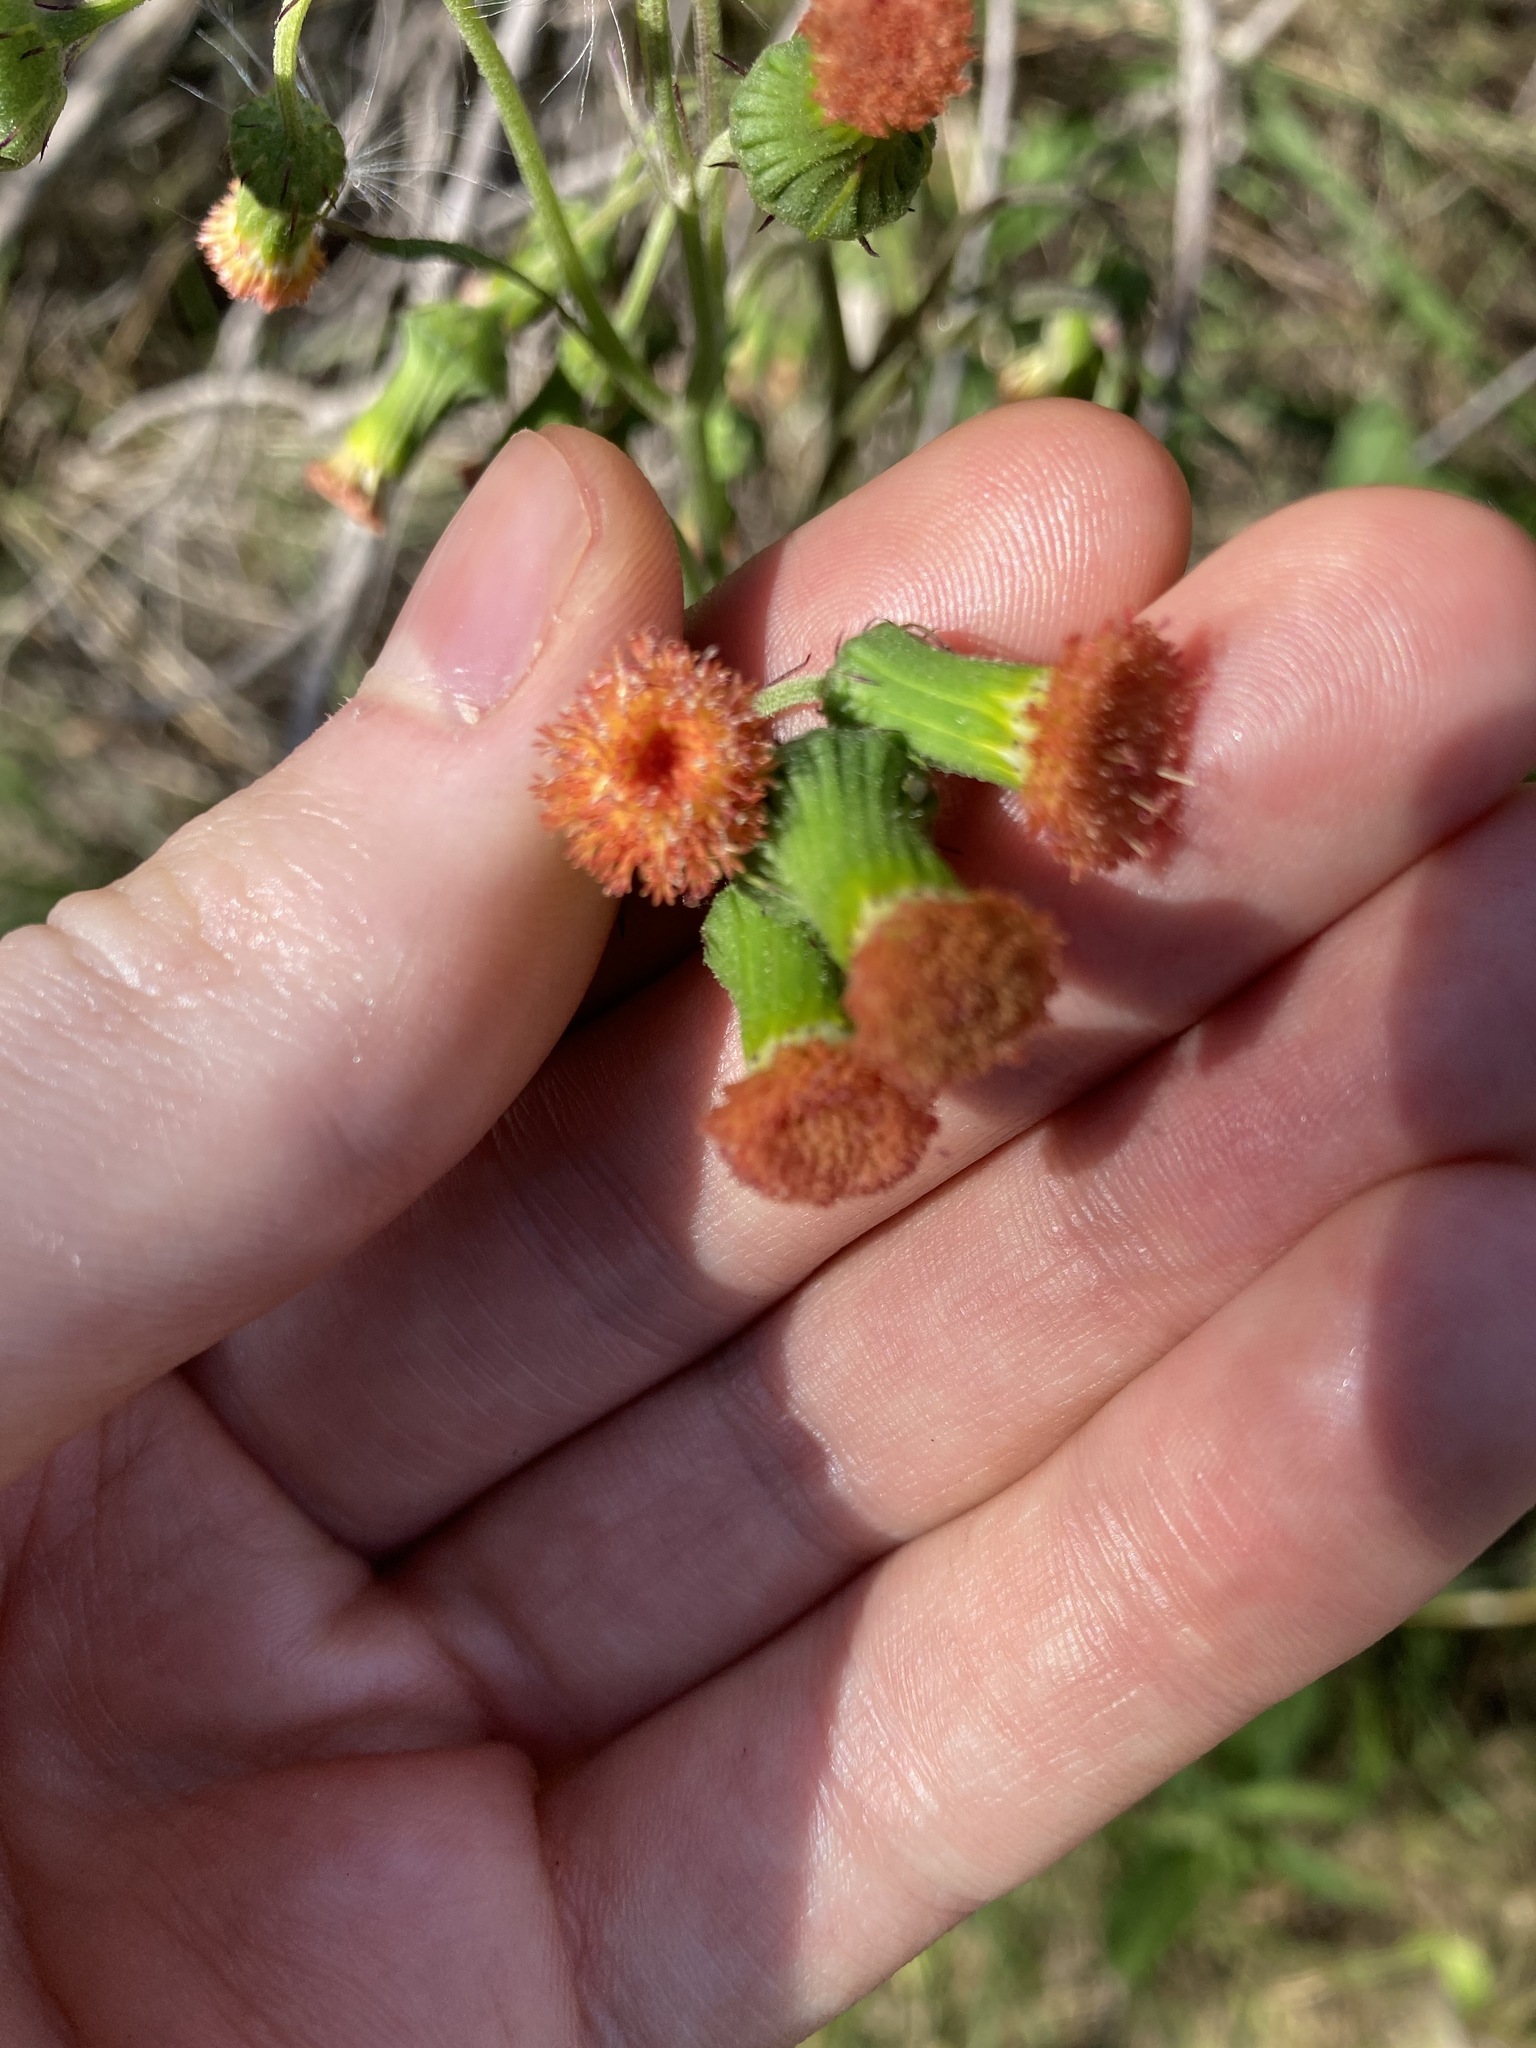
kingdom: Plantae
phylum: Tracheophyta
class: Magnoliopsida
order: Asterales
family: Asteraceae
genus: Crassocephalum
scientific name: Crassocephalum crepidioides
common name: Redflower ragleaf
